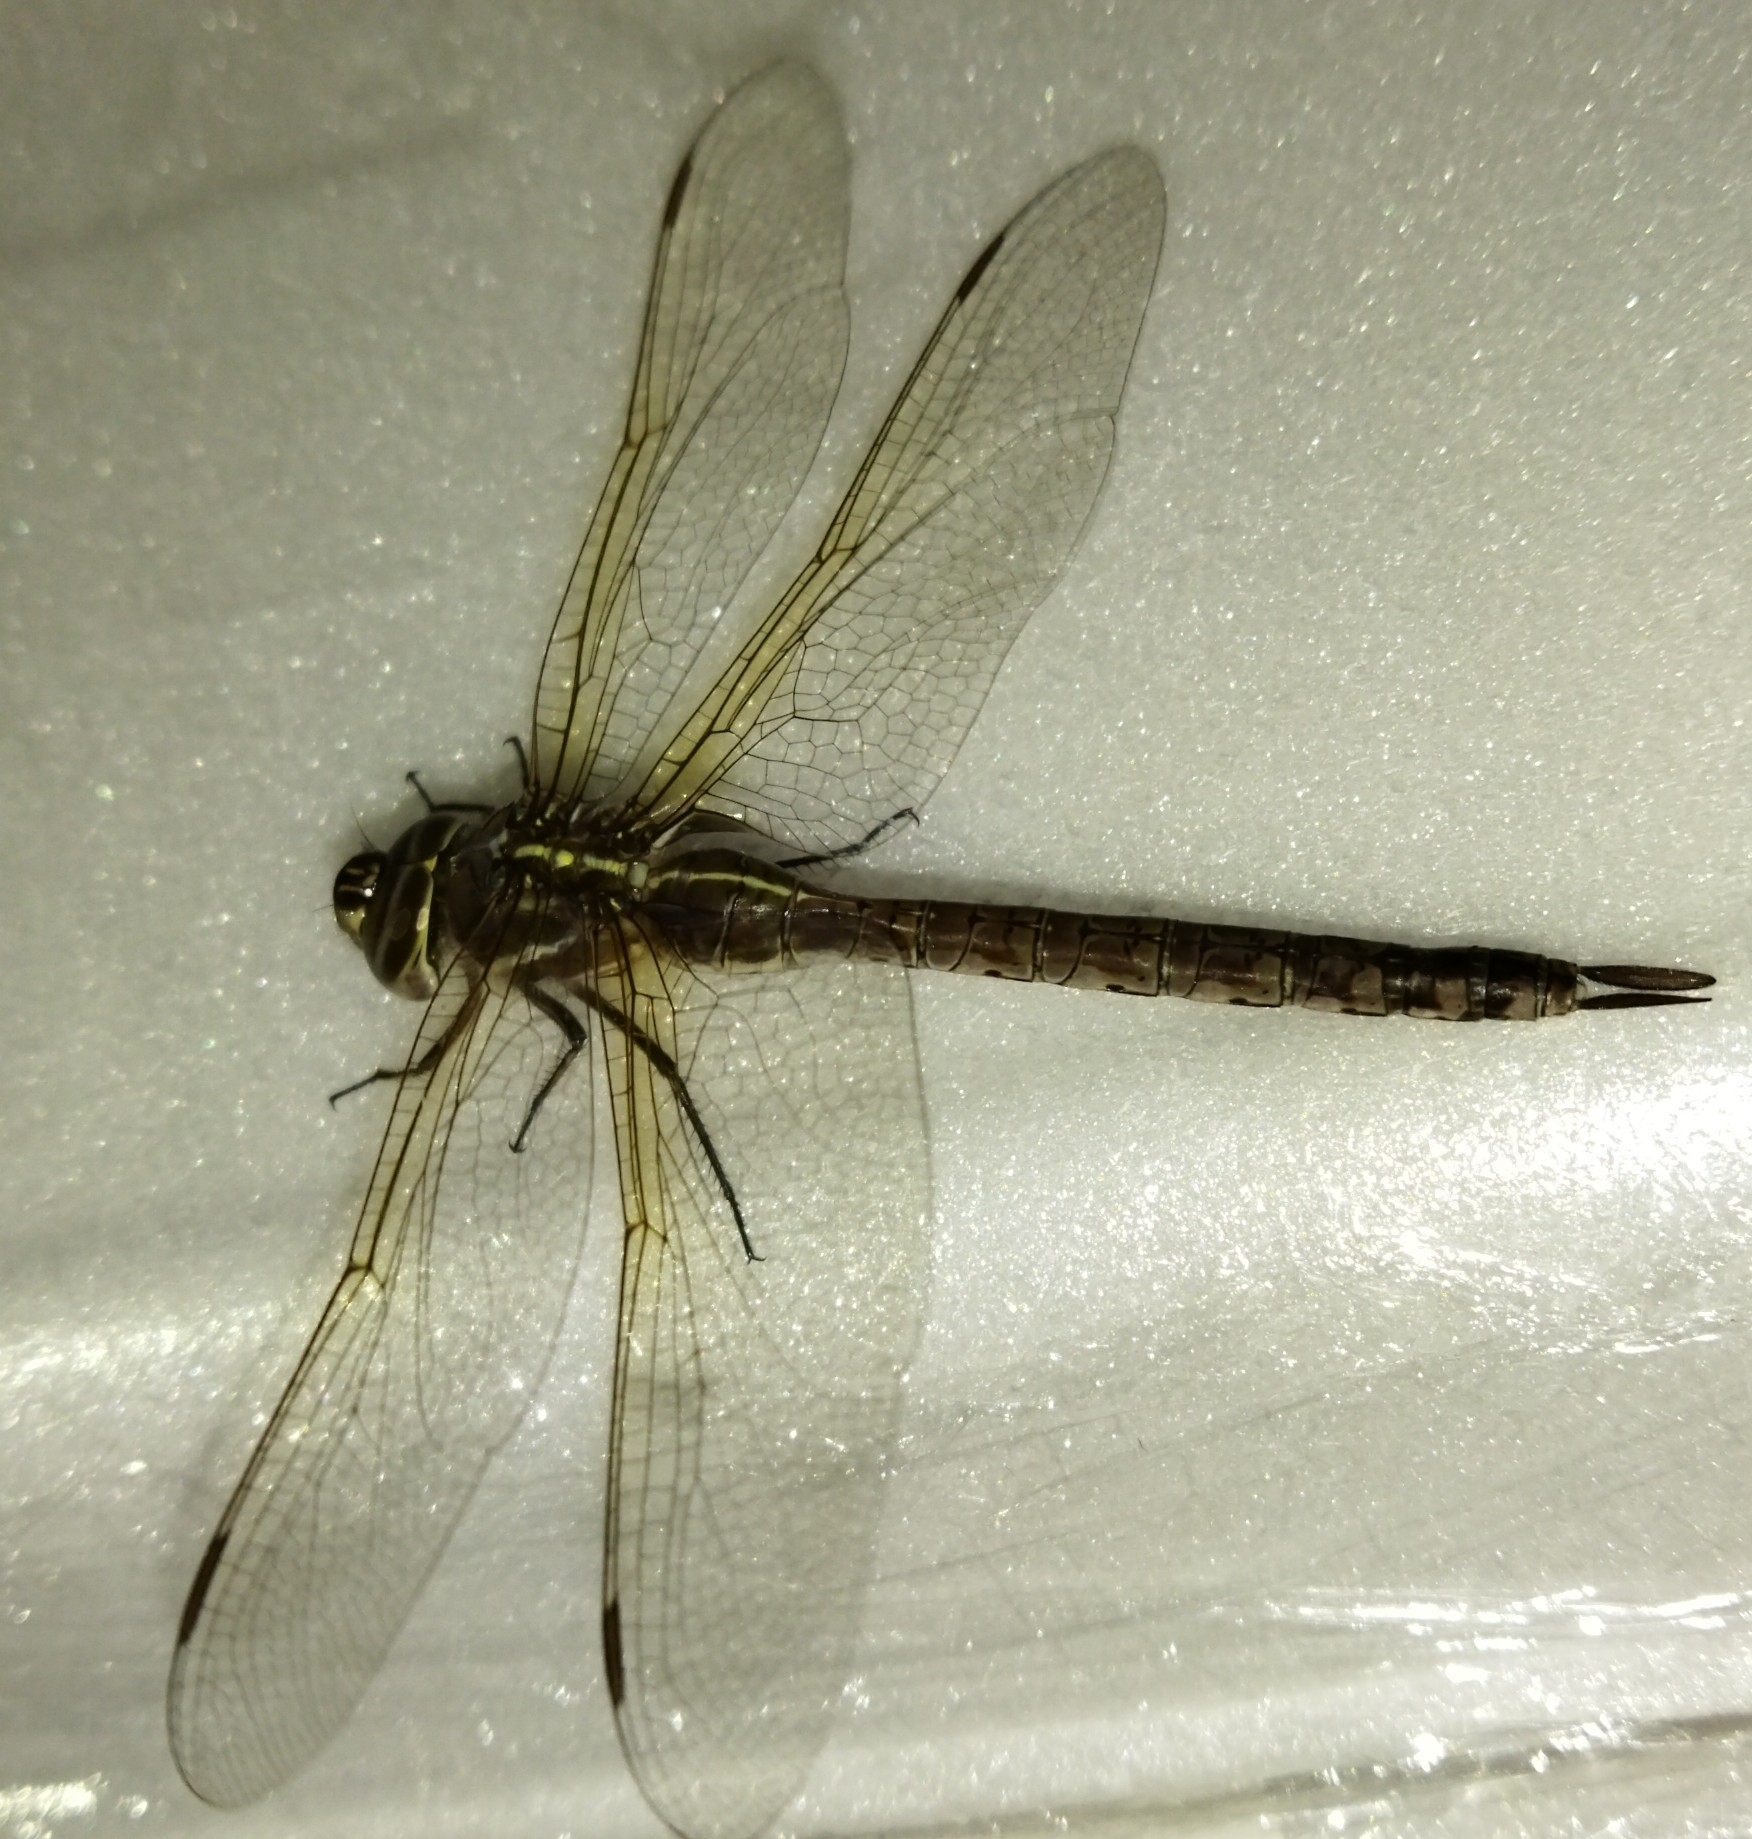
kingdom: Animalia
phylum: Arthropoda
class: Insecta
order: Odonata
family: Aeshnidae
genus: Rhionaeschna
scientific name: Rhionaeschna bonariensis
